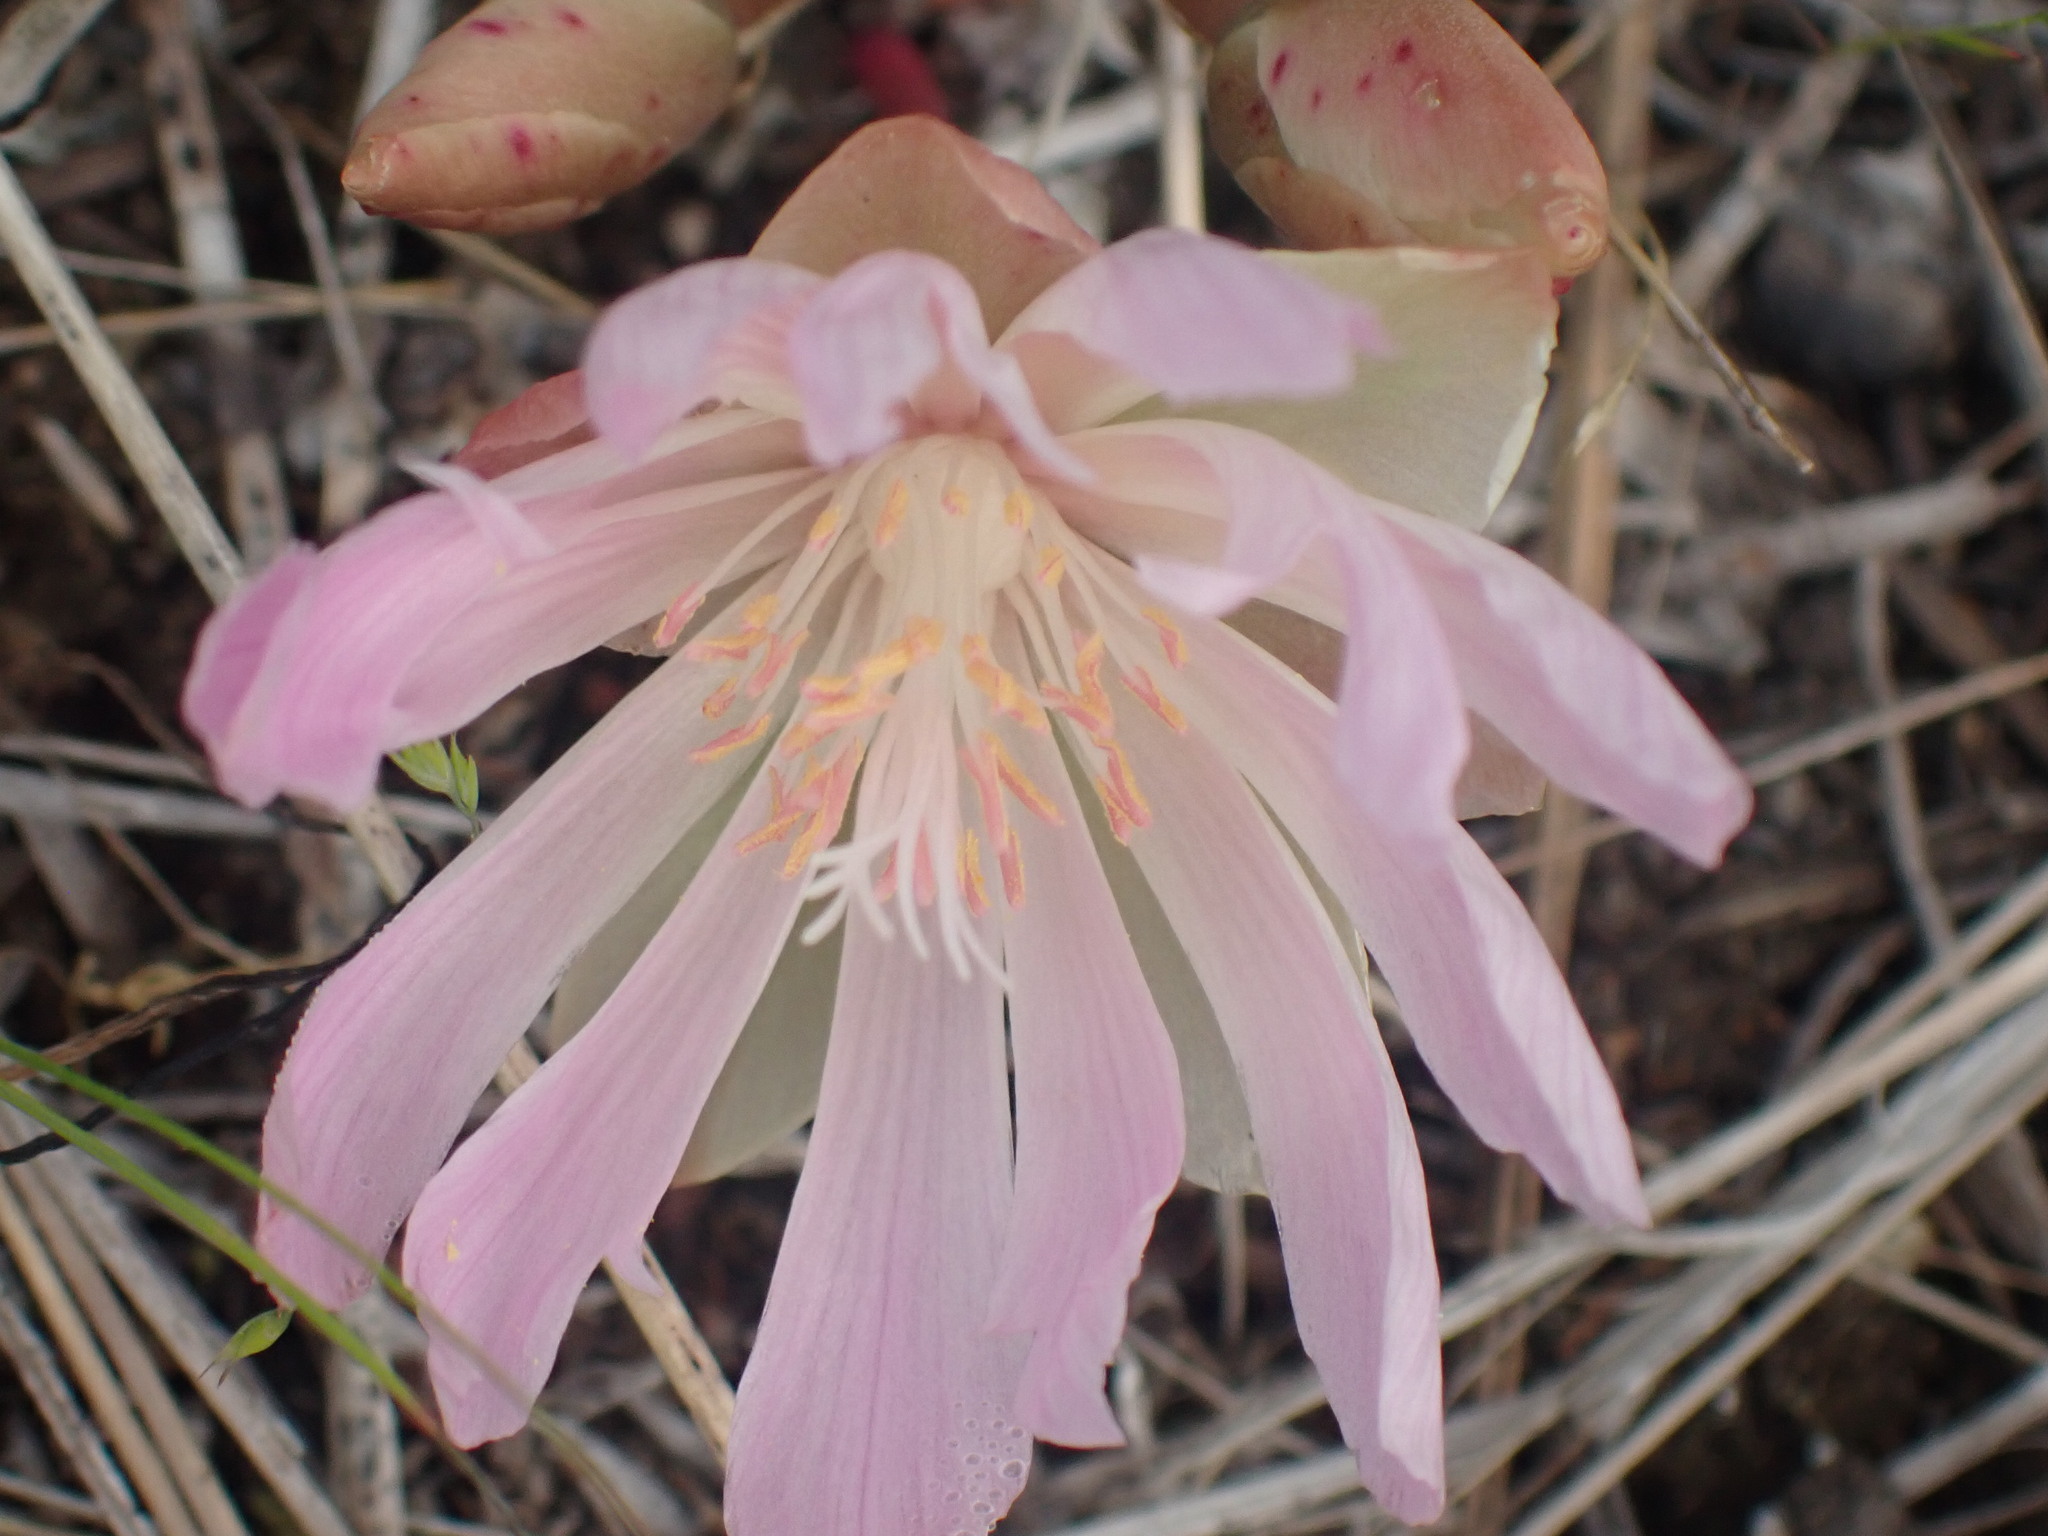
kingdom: Plantae
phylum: Tracheophyta
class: Magnoliopsida
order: Caryophyllales
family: Montiaceae
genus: Lewisia
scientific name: Lewisia rediviva
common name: Bitter-root
